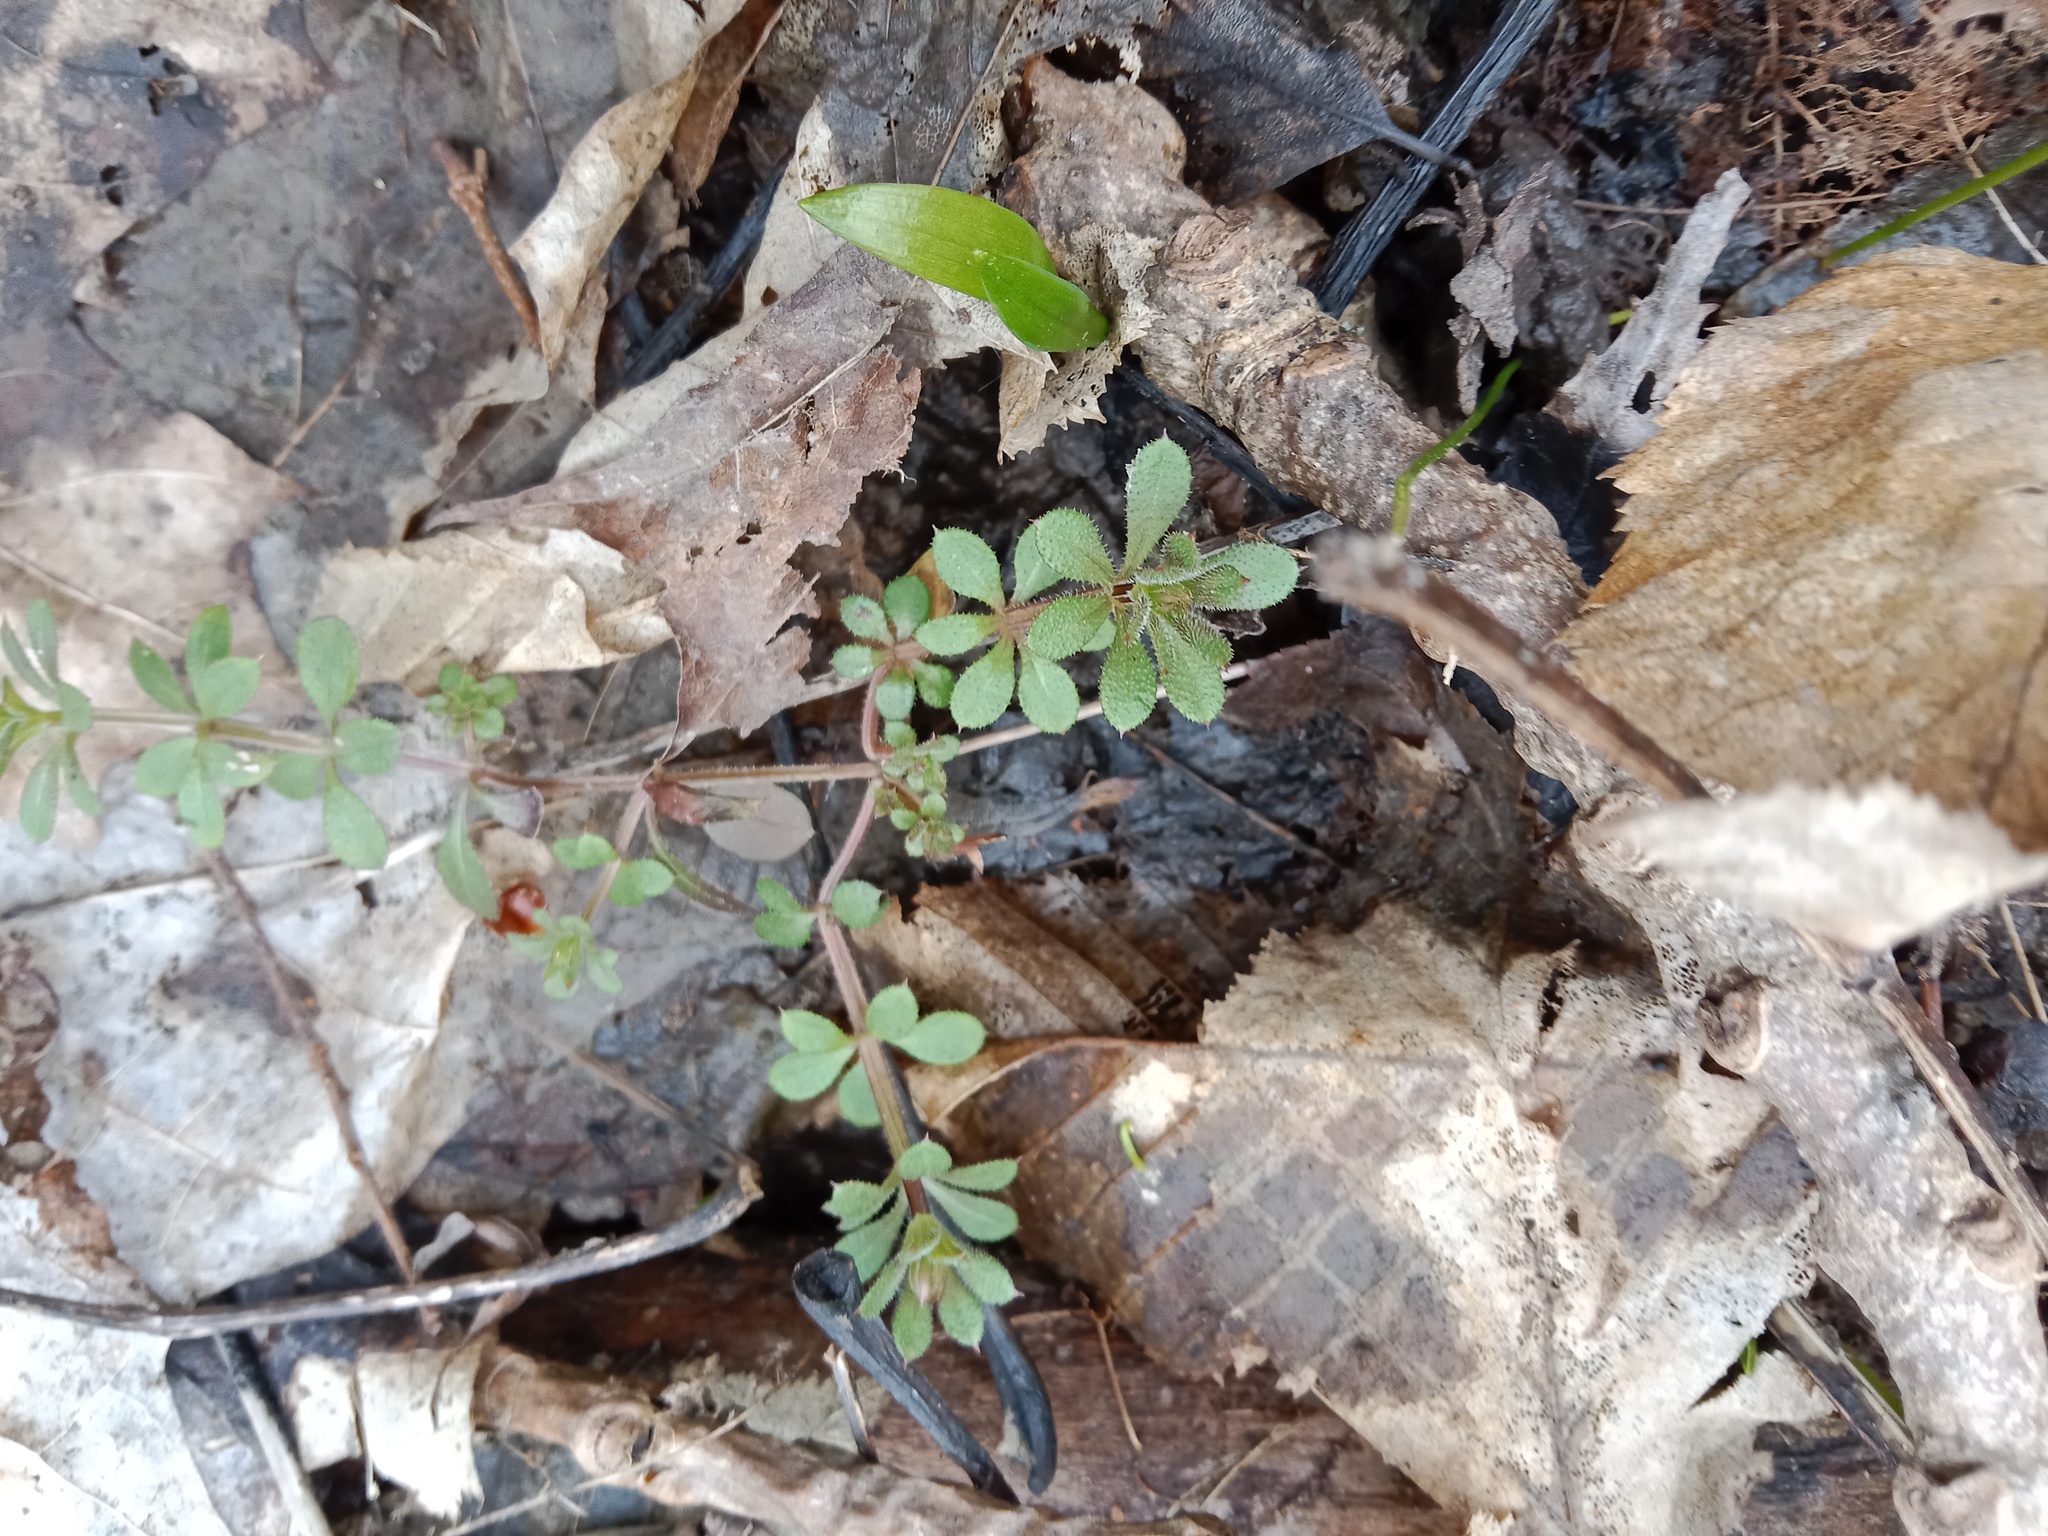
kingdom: Plantae
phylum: Tracheophyta
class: Magnoliopsida
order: Gentianales
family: Rubiaceae
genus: Galium
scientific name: Galium aparine
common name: Cleavers
